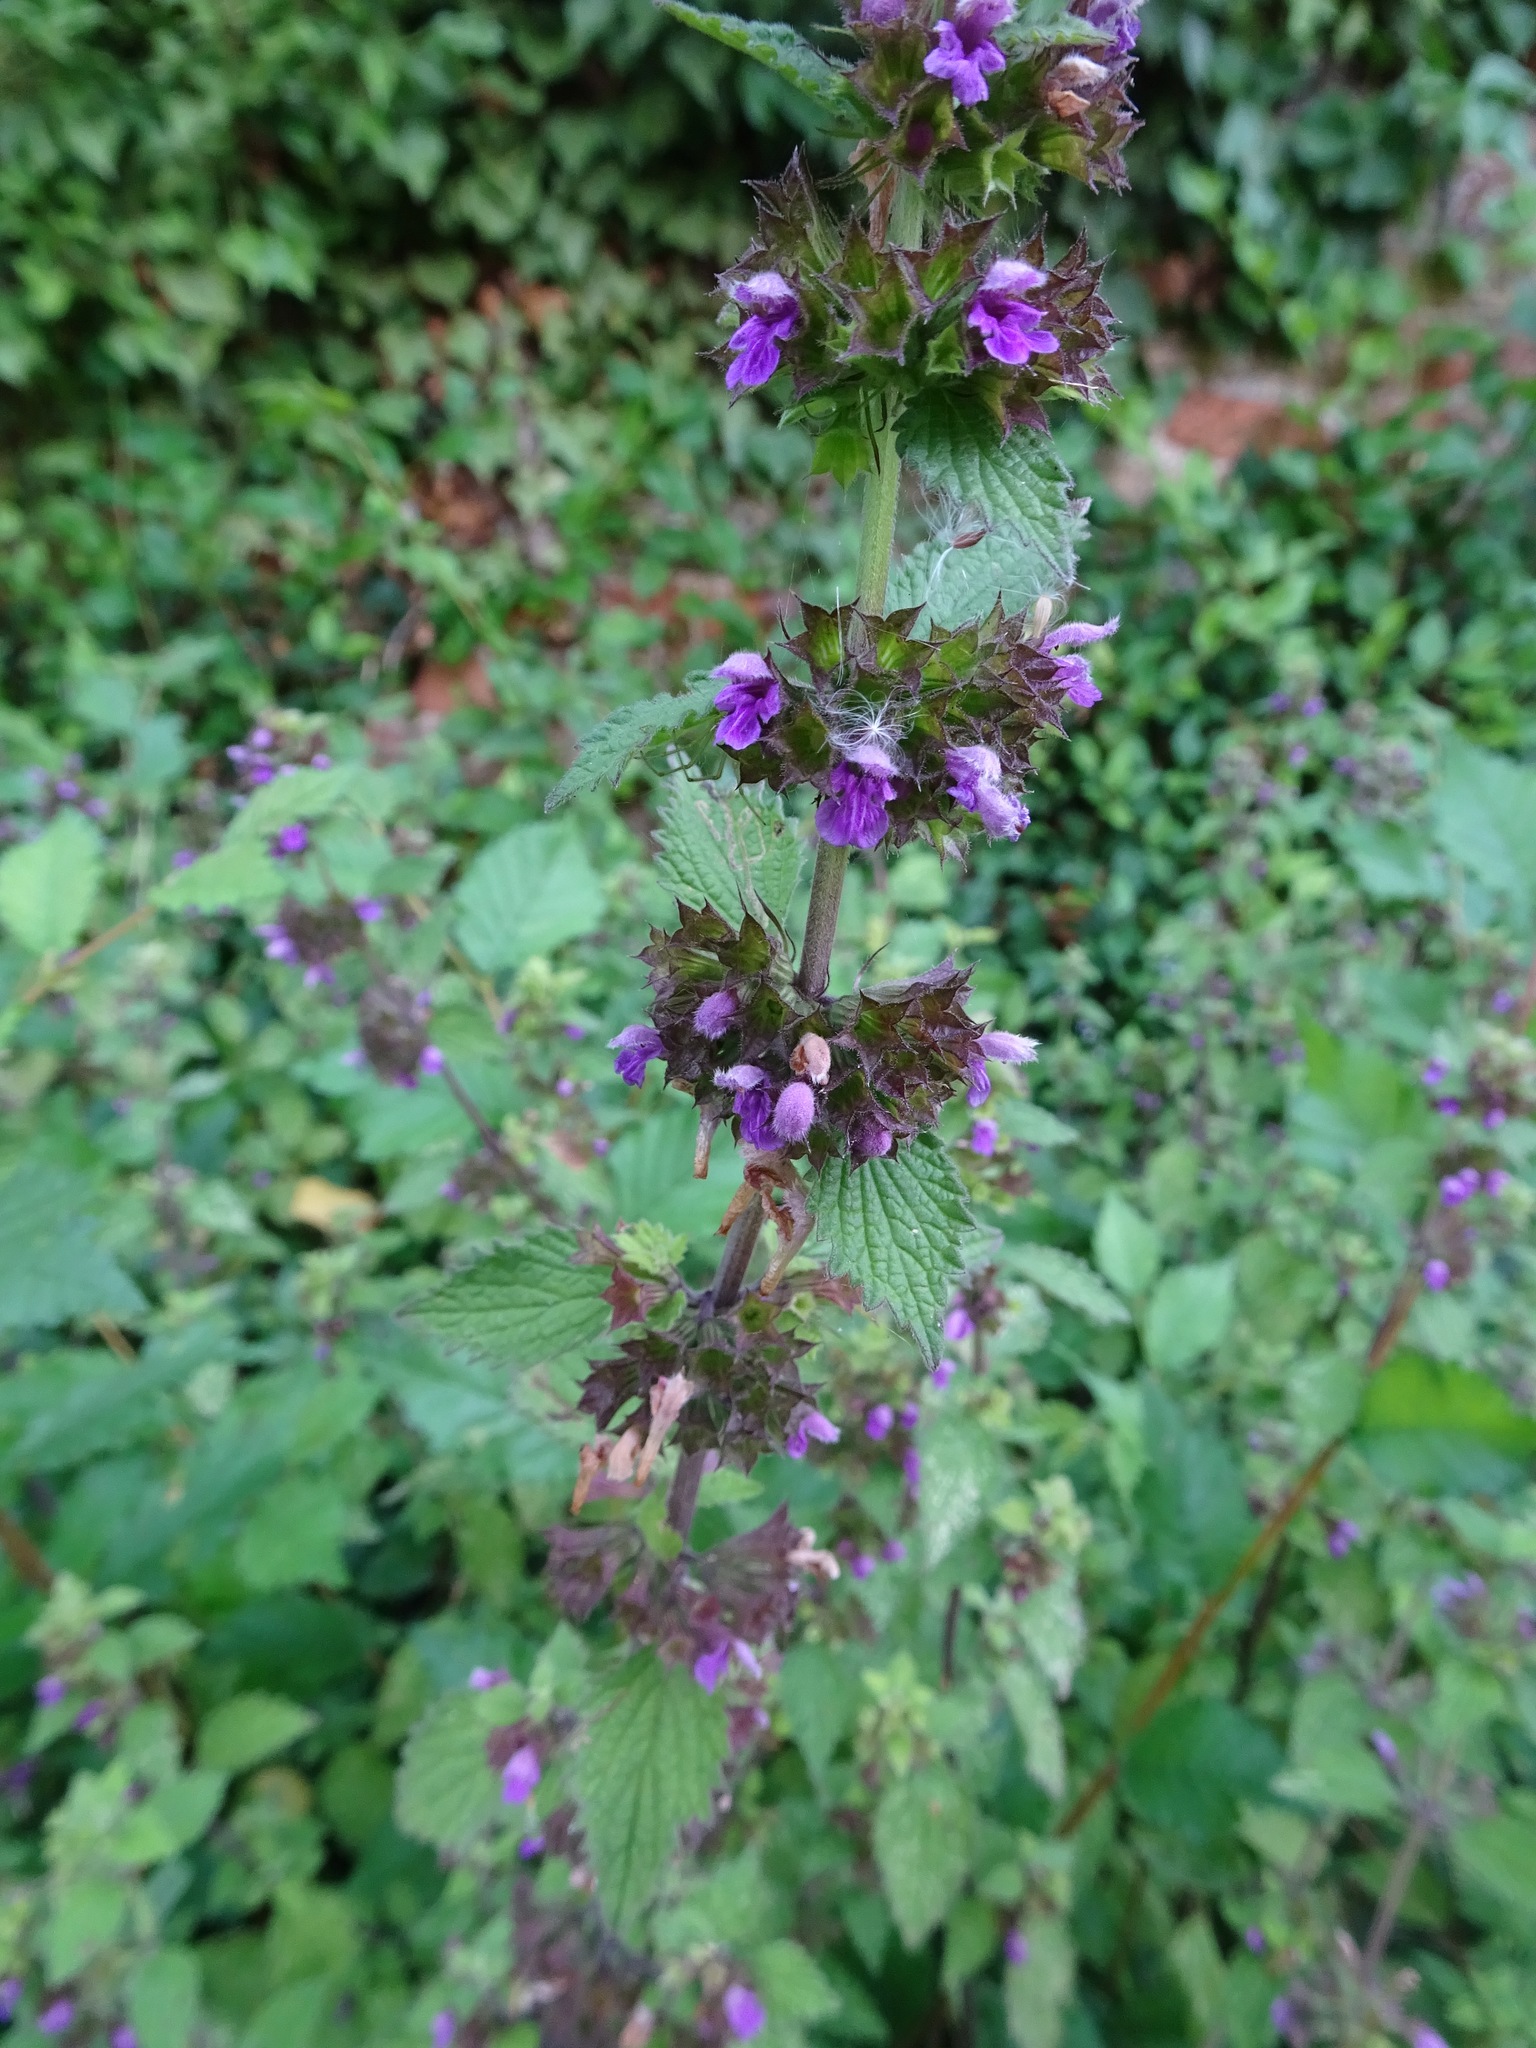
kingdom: Plantae
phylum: Tracheophyta
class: Magnoliopsida
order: Lamiales
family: Lamiaceae
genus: Ballota
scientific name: Ballota nigra
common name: Black horehound
